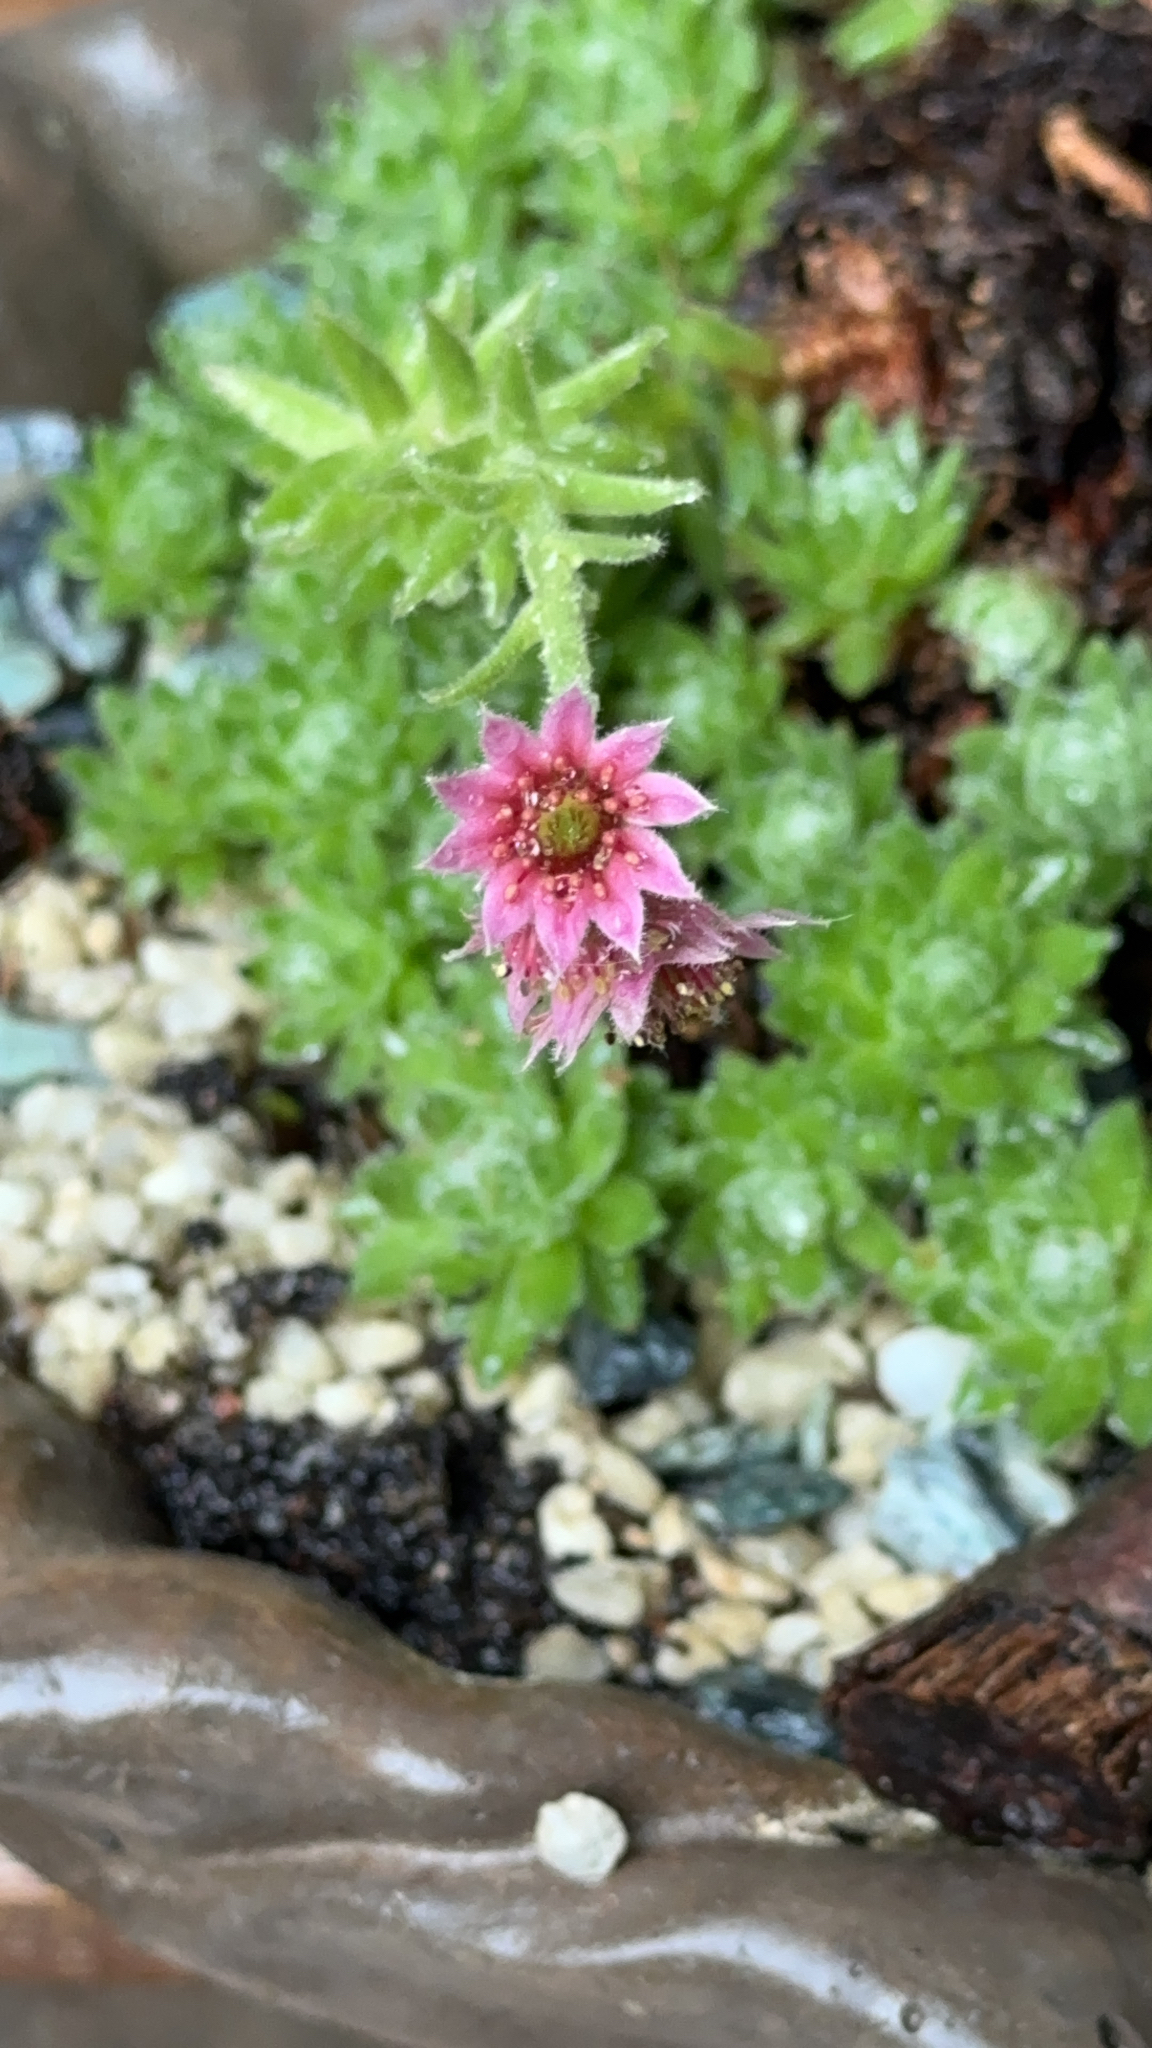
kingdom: Plantae
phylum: Tracheophyta
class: Magnoliopsida
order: Saxifragales
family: Crassulaceae
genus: Sempervivum
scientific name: Sempervivum arachnoideum
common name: Cobweb house-leek
